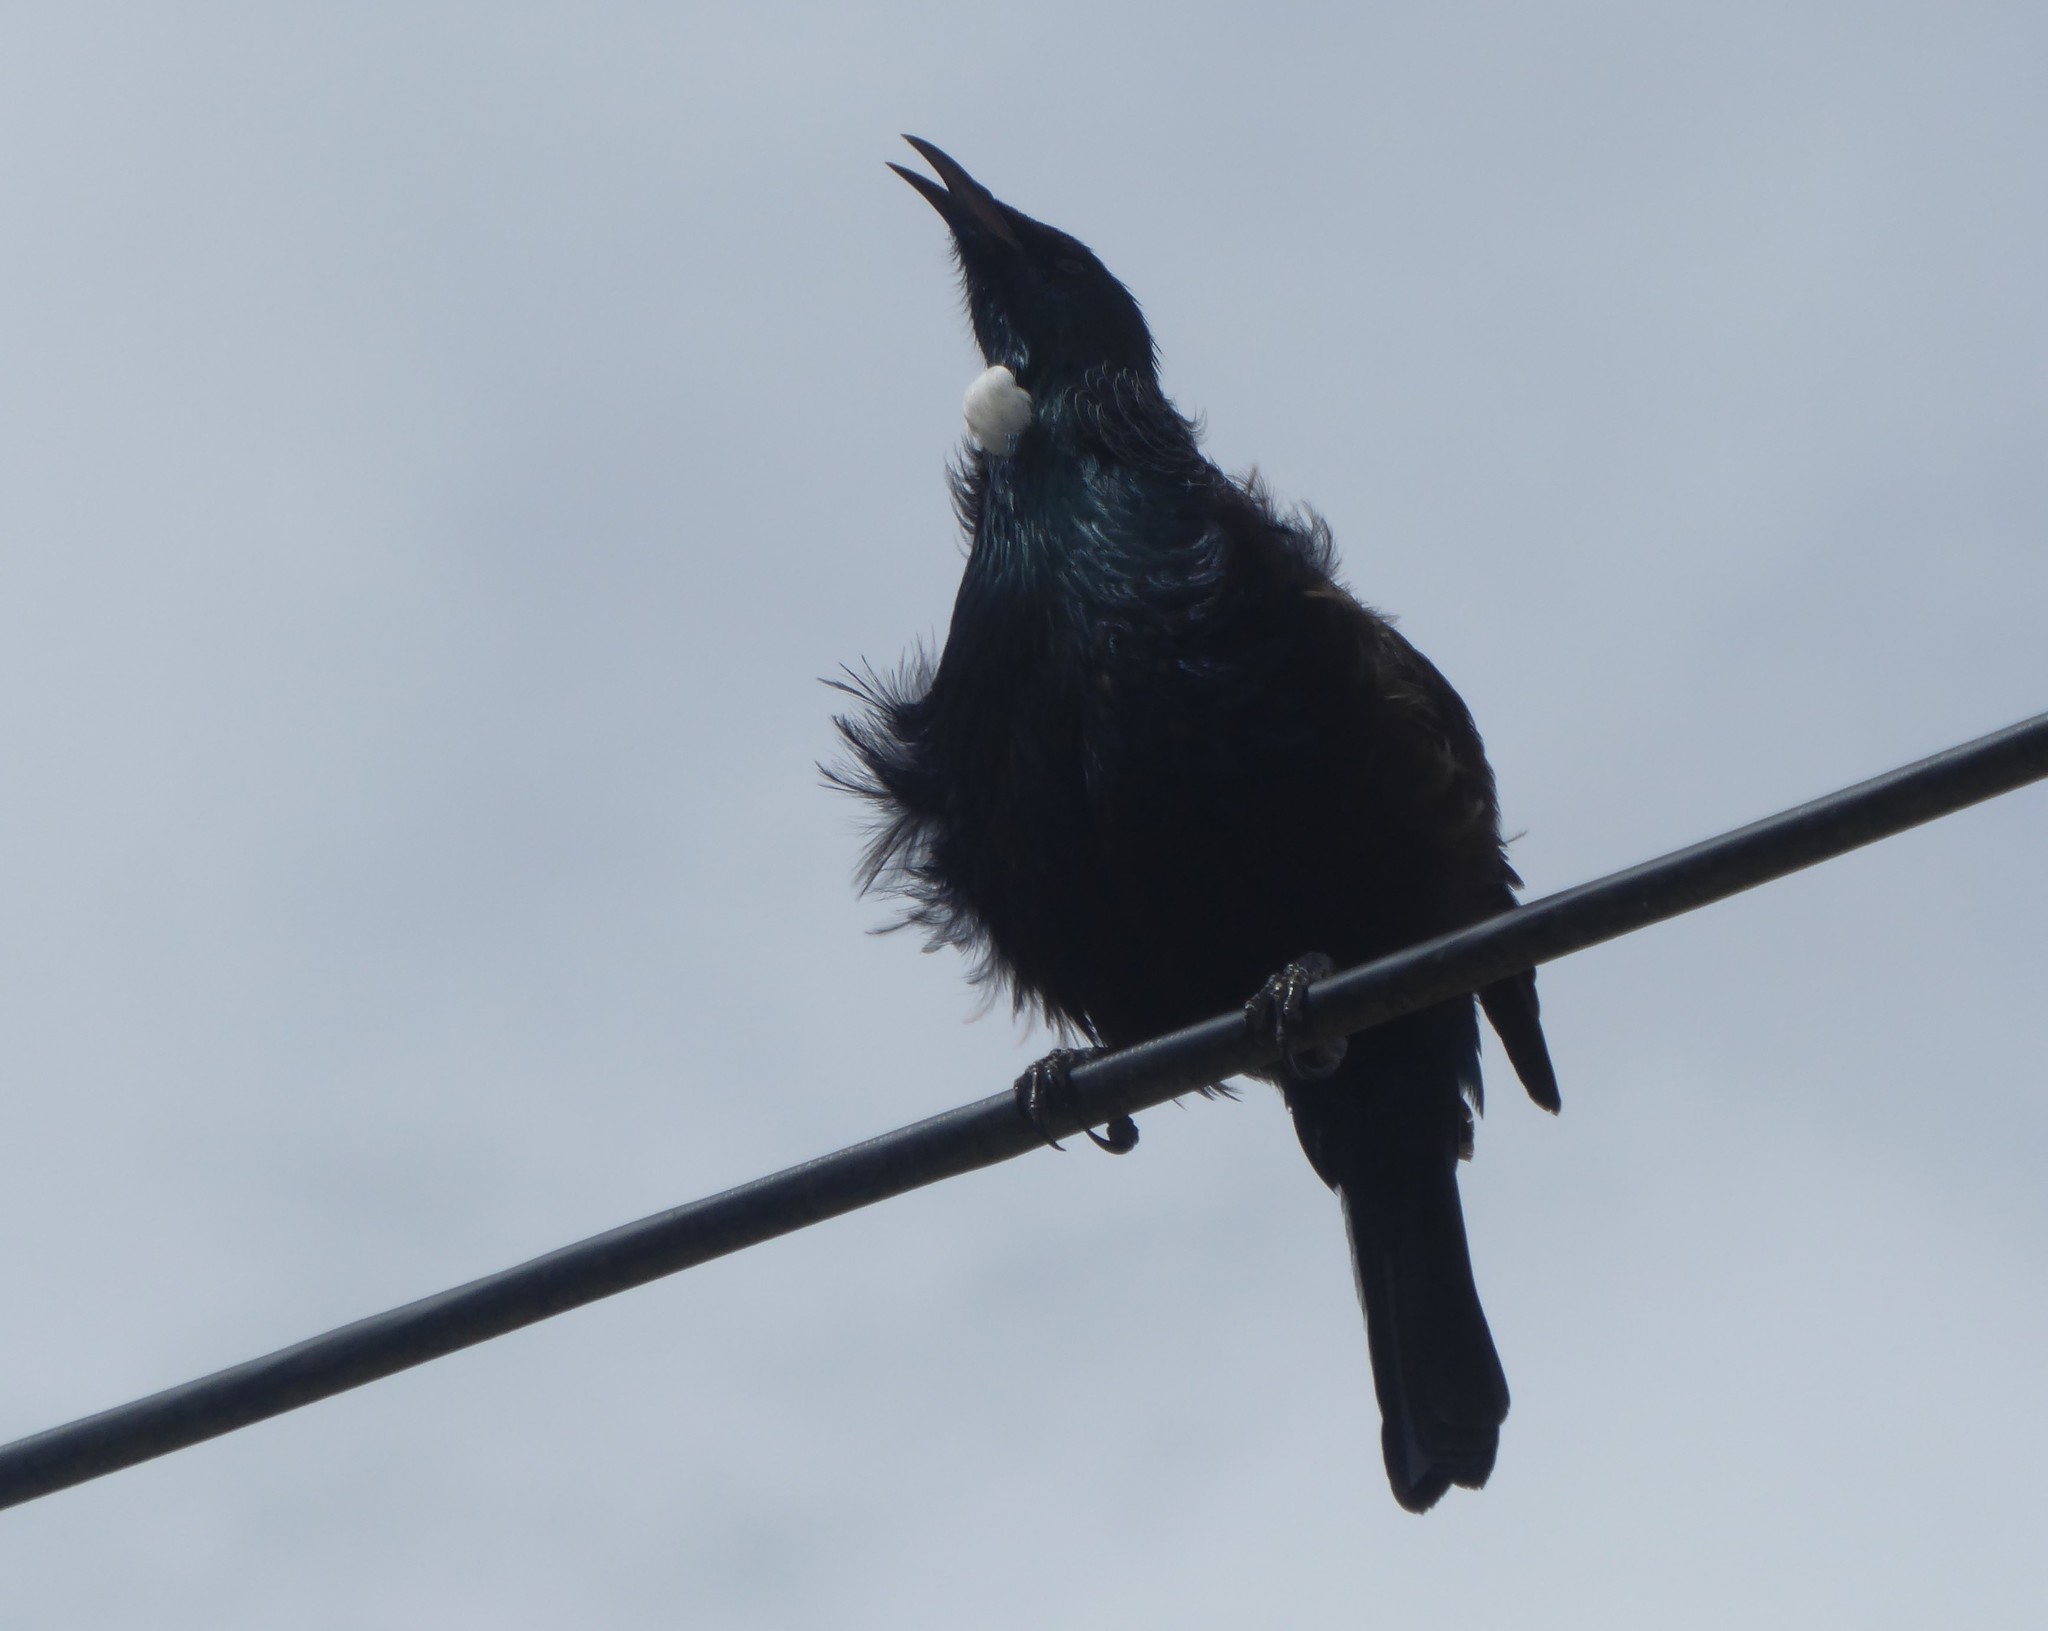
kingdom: Animalia
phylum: Chordata
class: Aves
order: Passeriformes
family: Meliphagidae
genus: Prosthemadera
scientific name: Prosthemadera novaeseelandiae
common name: Tui
